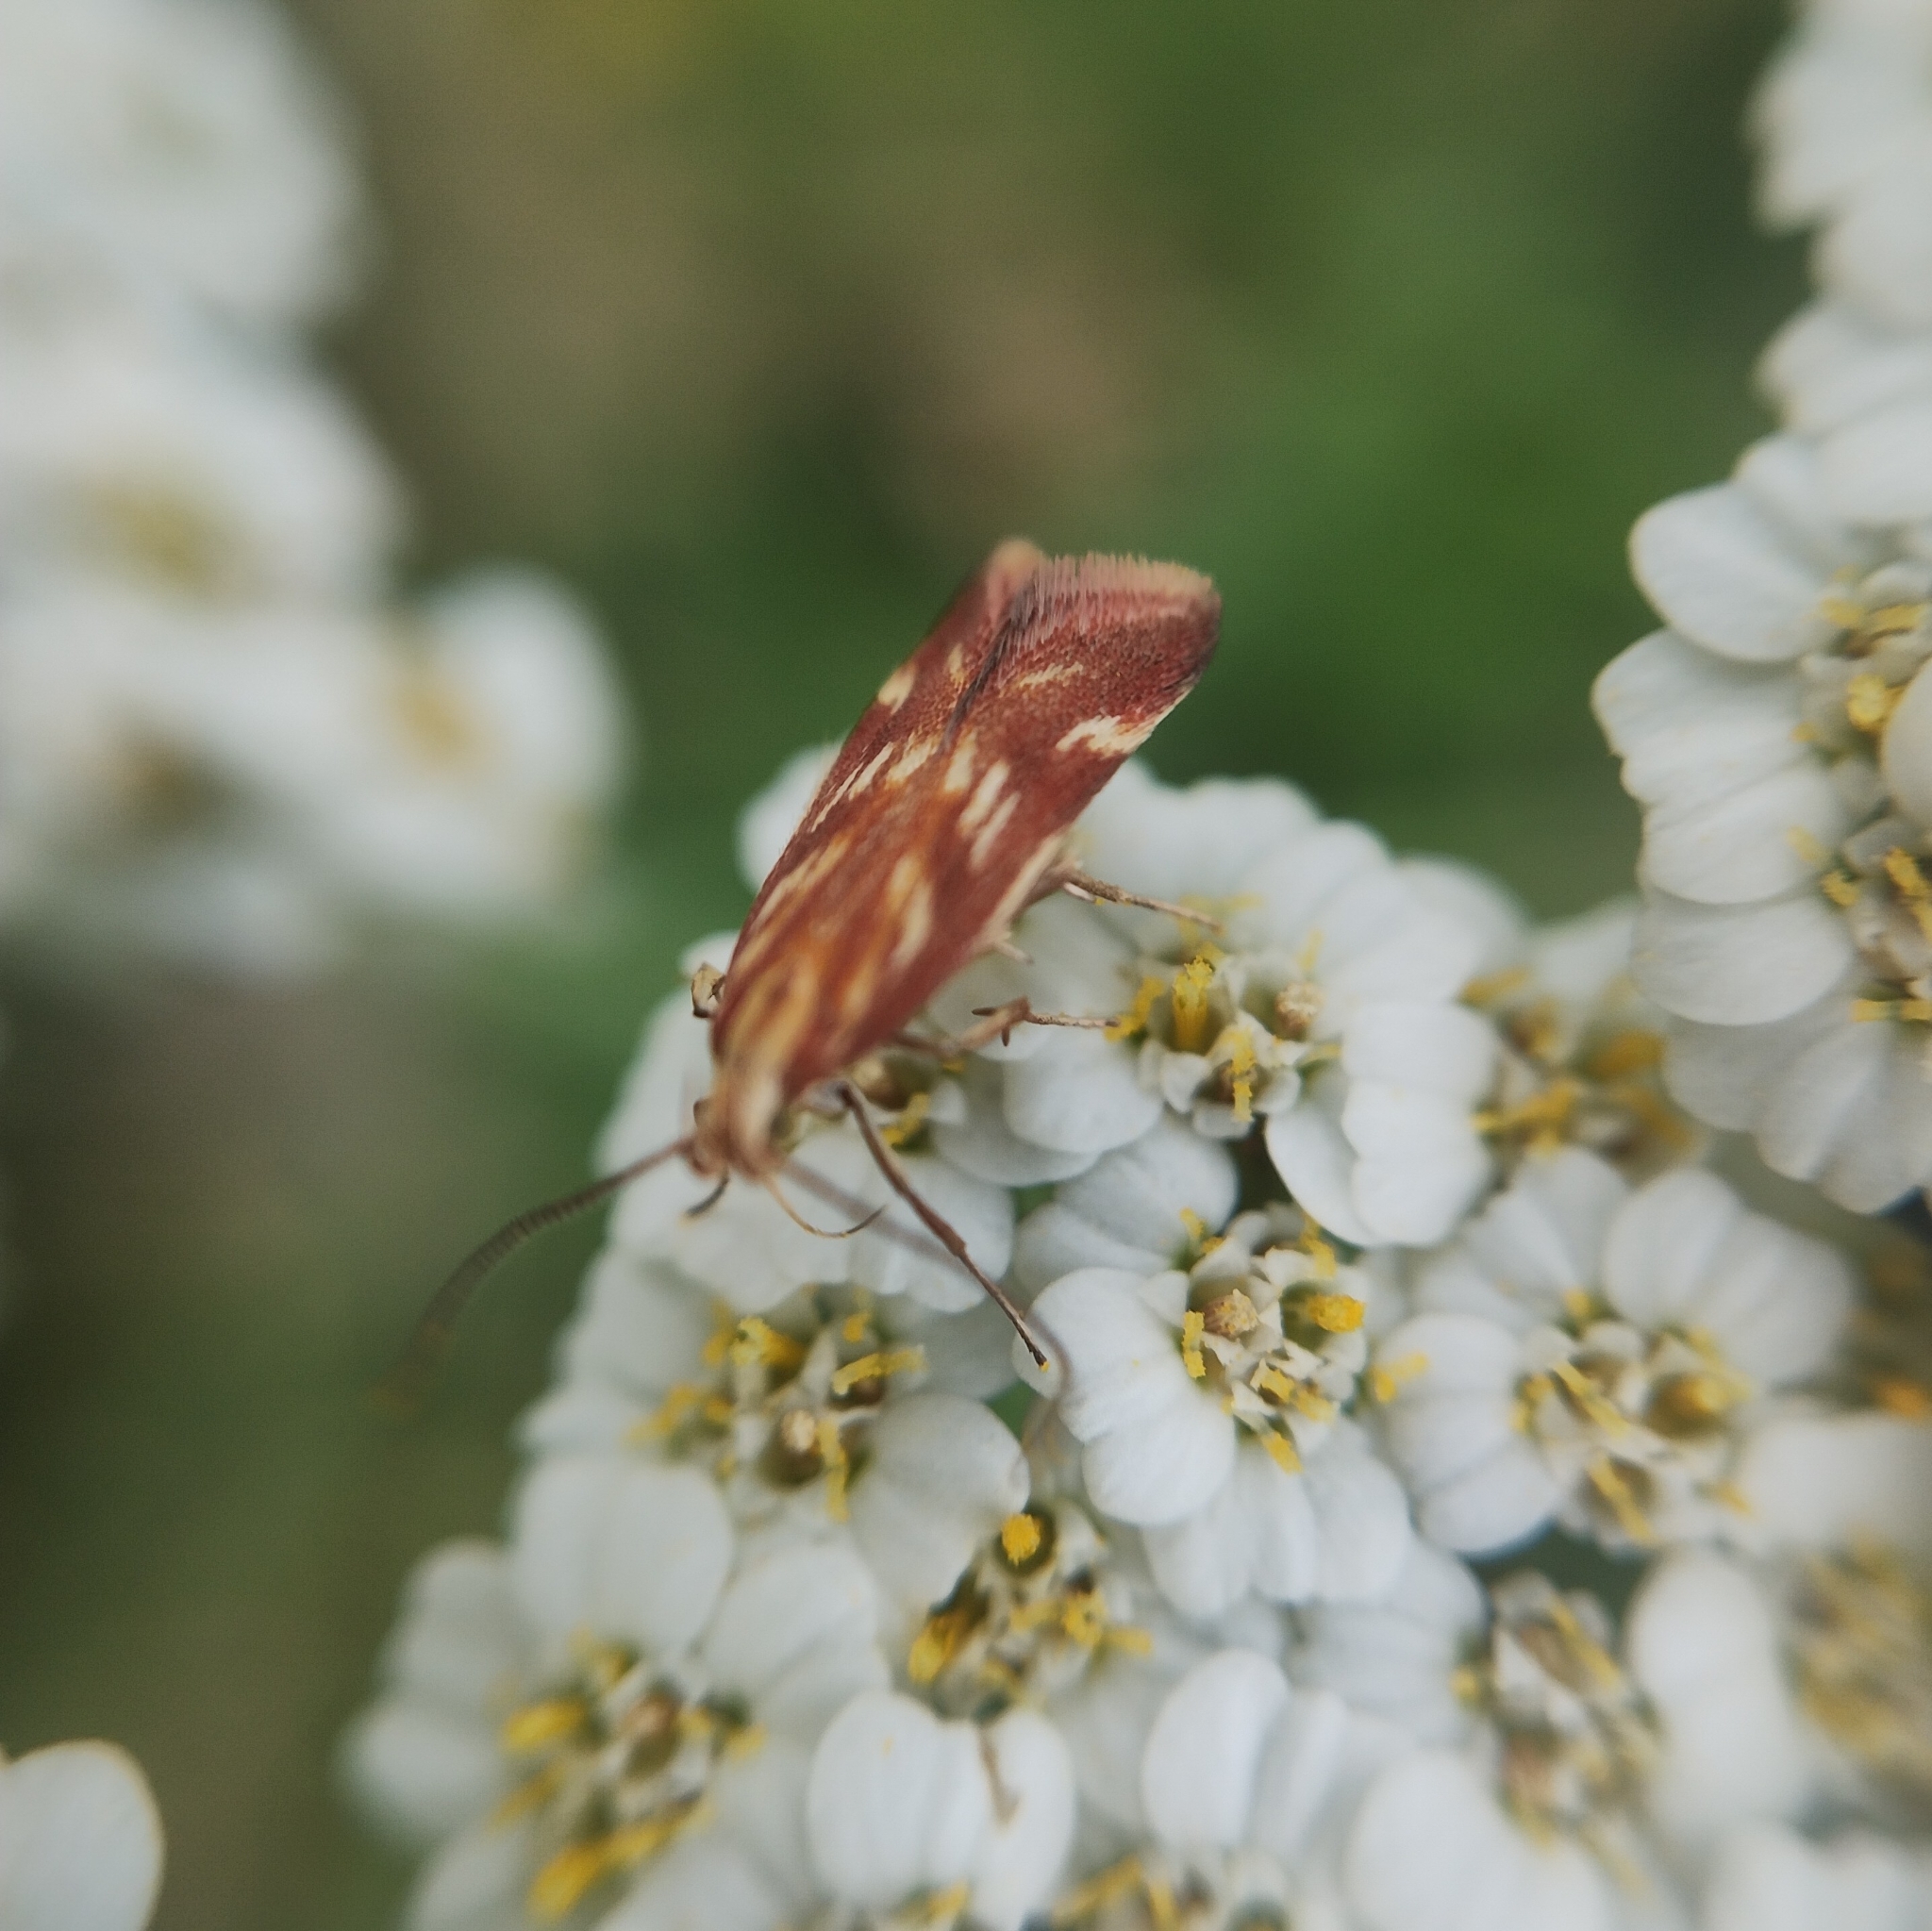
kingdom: Animalia
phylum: Arthropoda
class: Insecta
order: Lepidoptera
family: Gelechiidae
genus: Mirificarma
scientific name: Mirificarma eburnella
